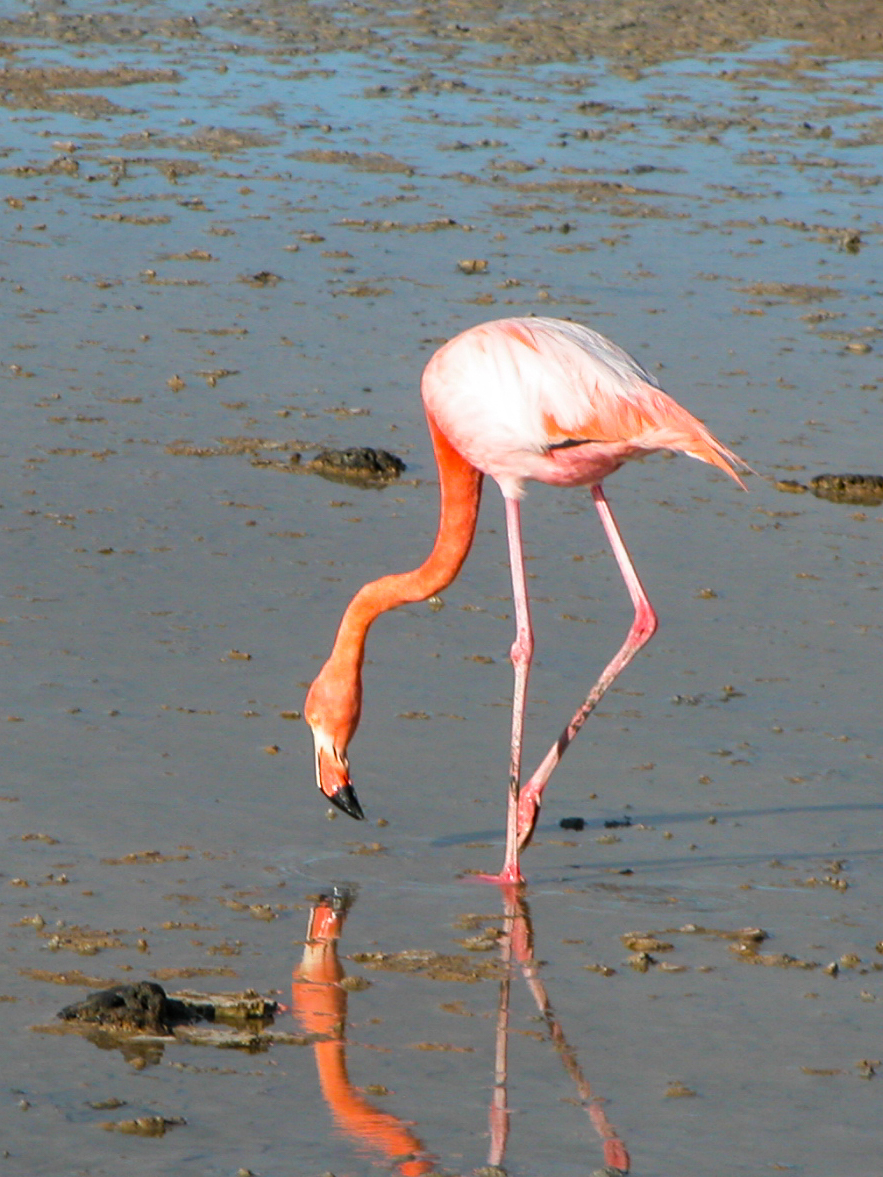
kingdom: Animalia
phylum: Chordata
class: Aves
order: Phoenicopteriformes
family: Phoenicopteridae
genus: Phoenicopterus
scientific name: Phoenicopterus ruber
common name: American flamingo
